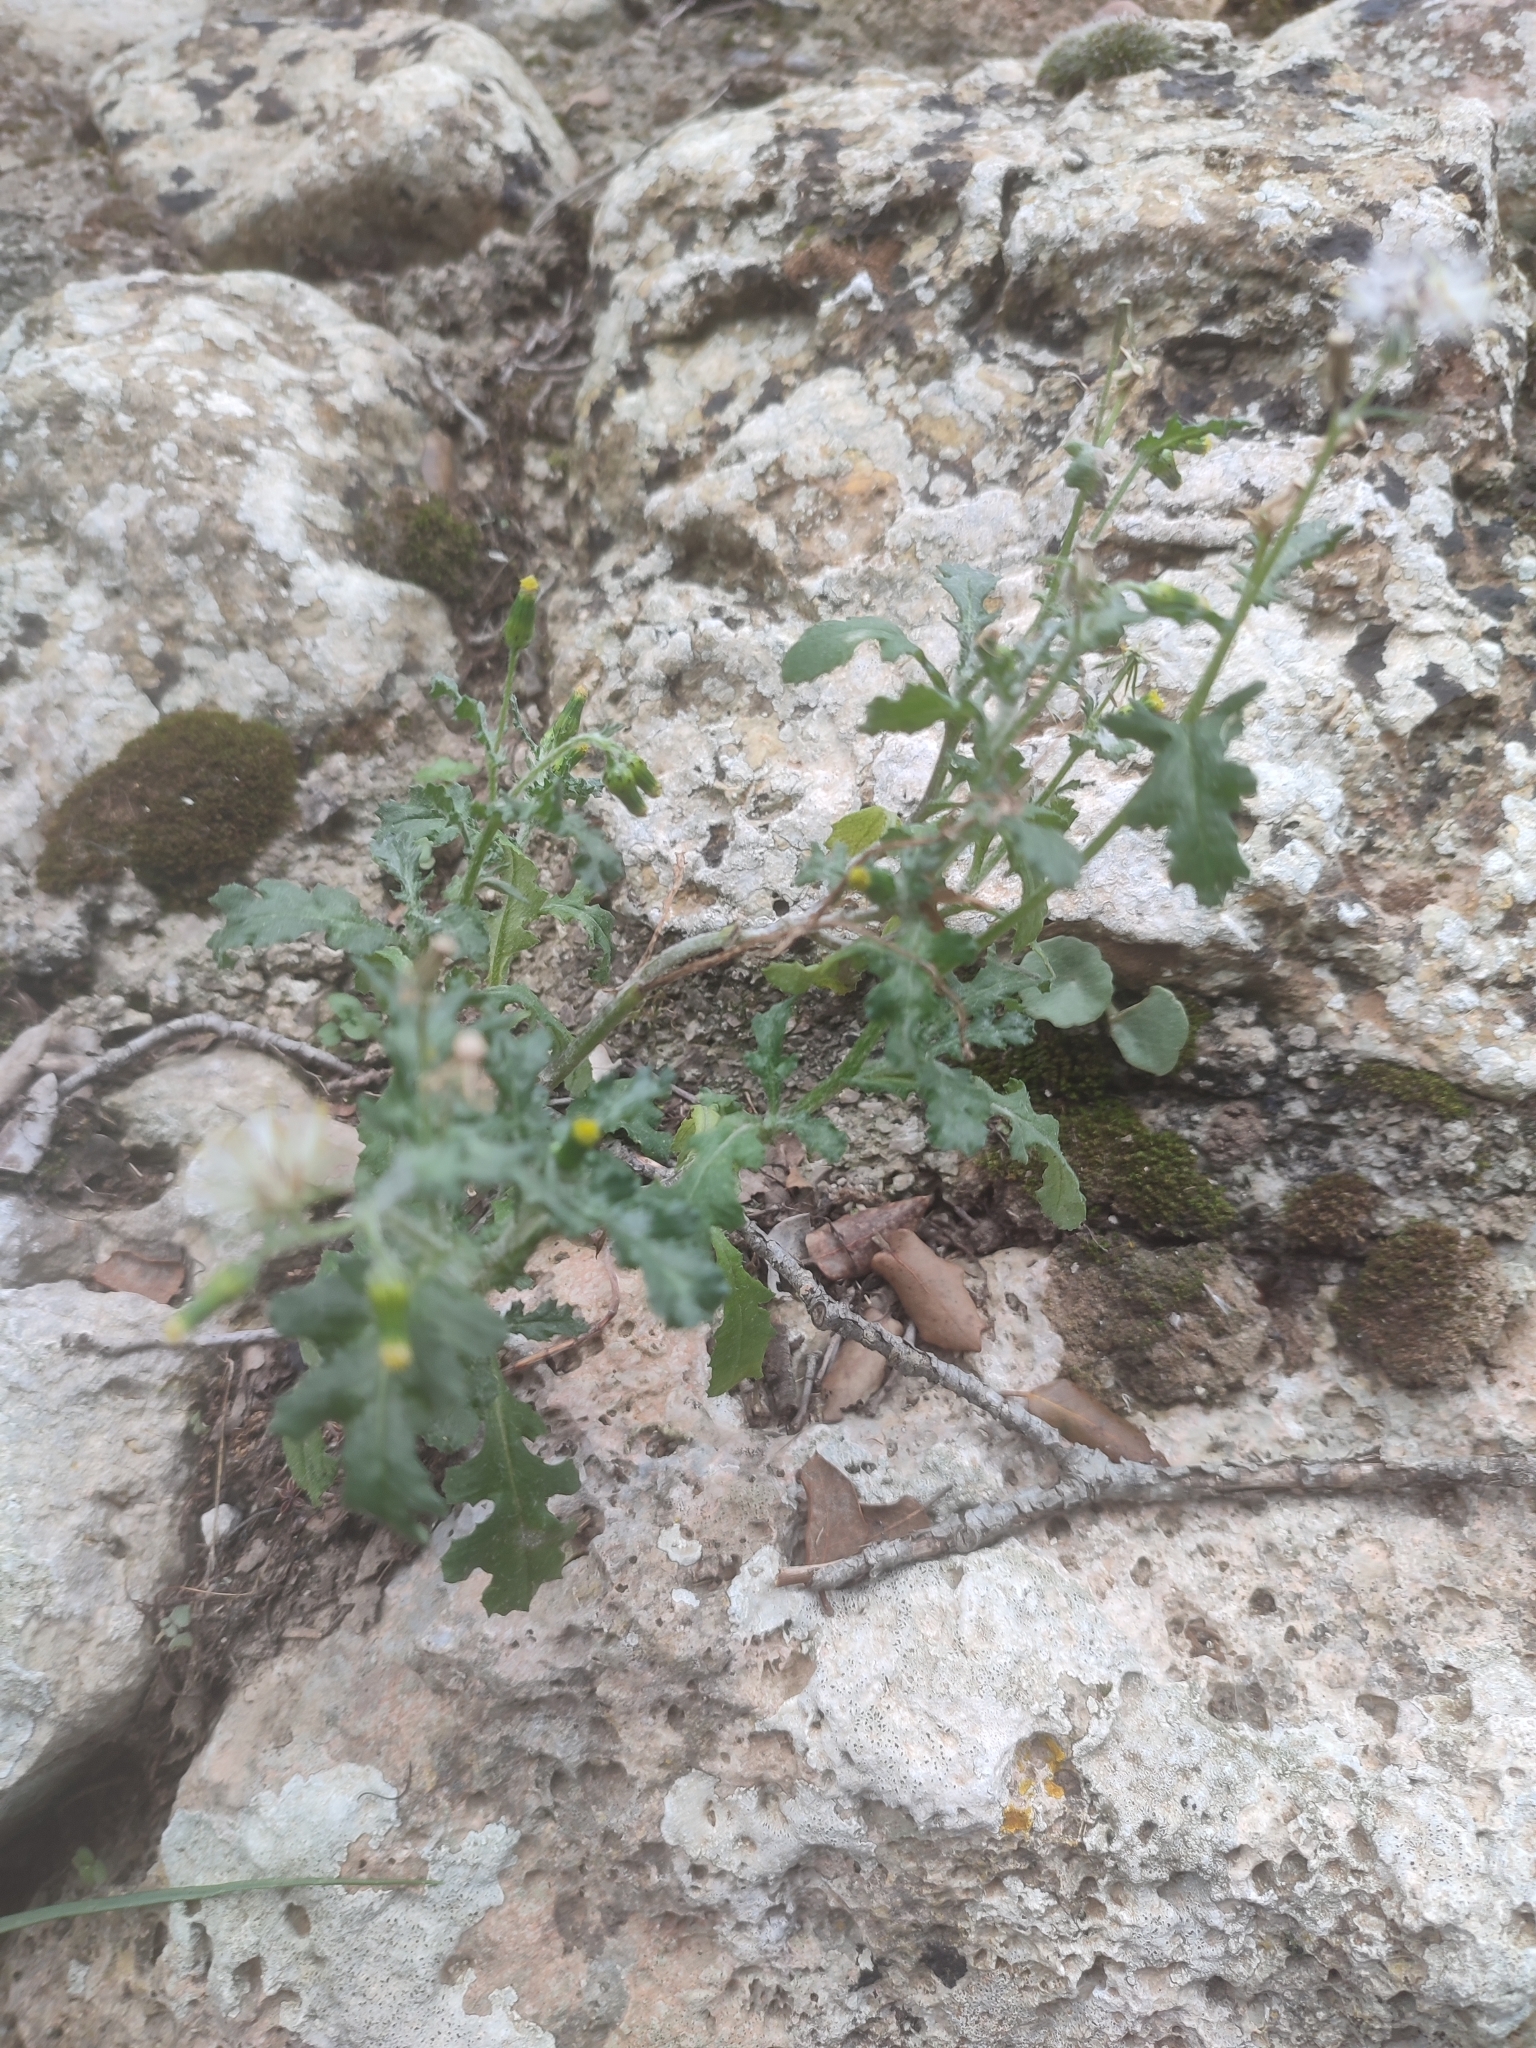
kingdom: Plantae
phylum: Tracheophyta
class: Magnoliopsida
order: Asterales
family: Asteraceae
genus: Senecio
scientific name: Senecio vulgaris
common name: Old-man-in-the-spring
